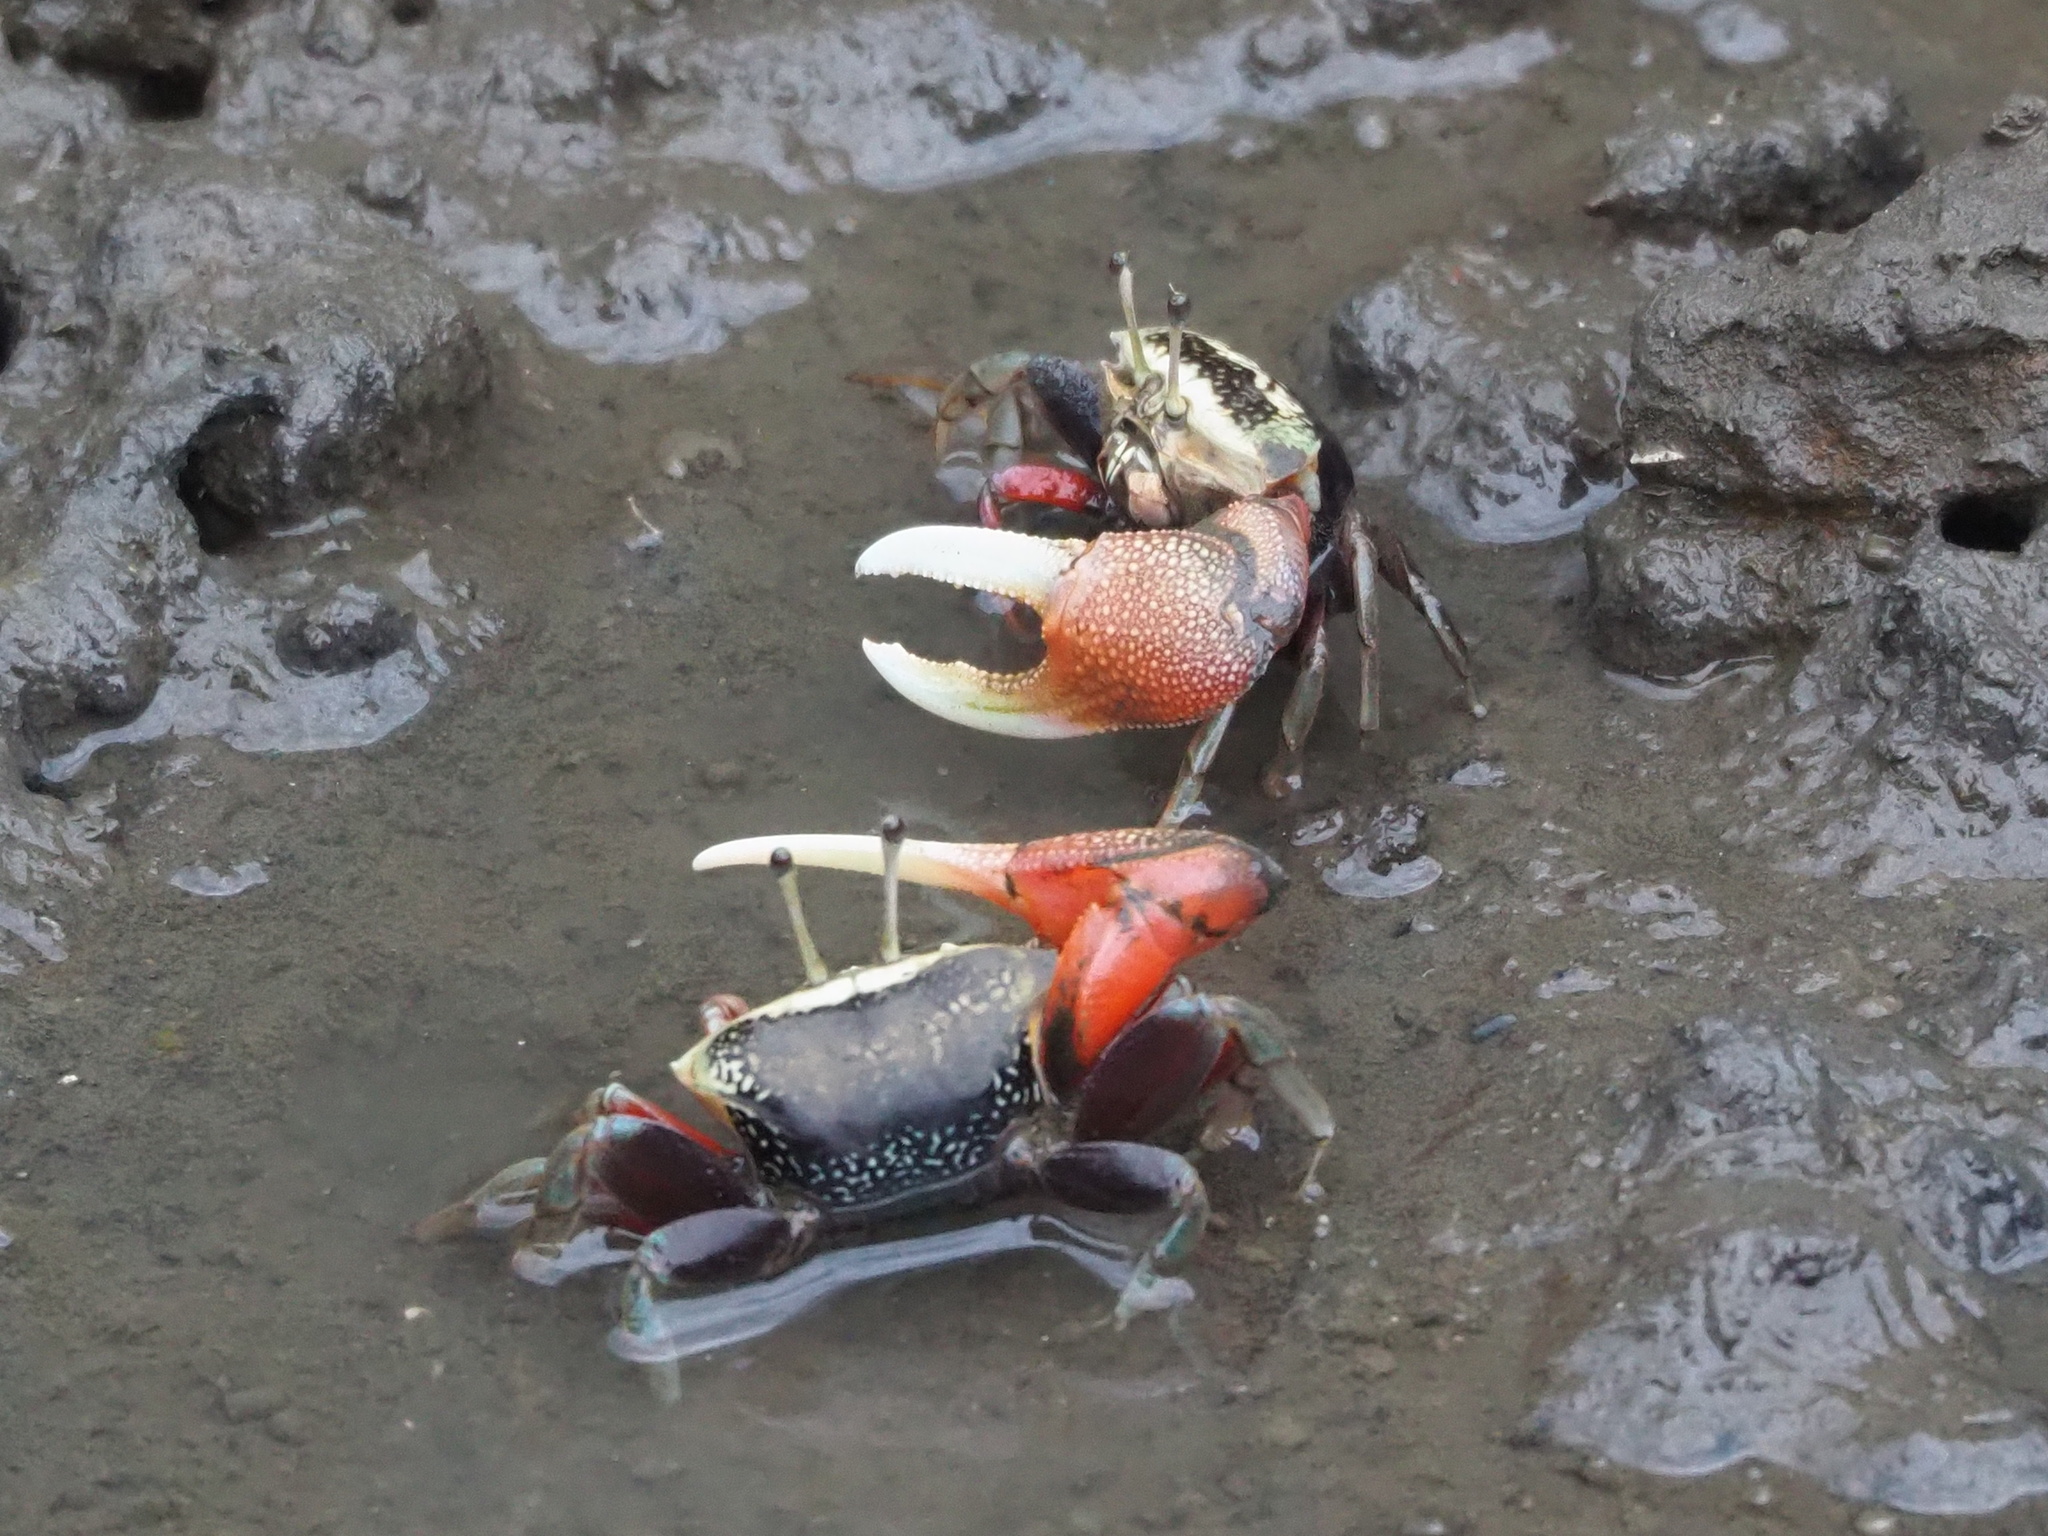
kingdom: Animalia
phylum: Arthropoda
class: Malacostraca
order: Decapoda
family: Ocypodidae
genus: Tubuca
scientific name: Tubuca arcuata
